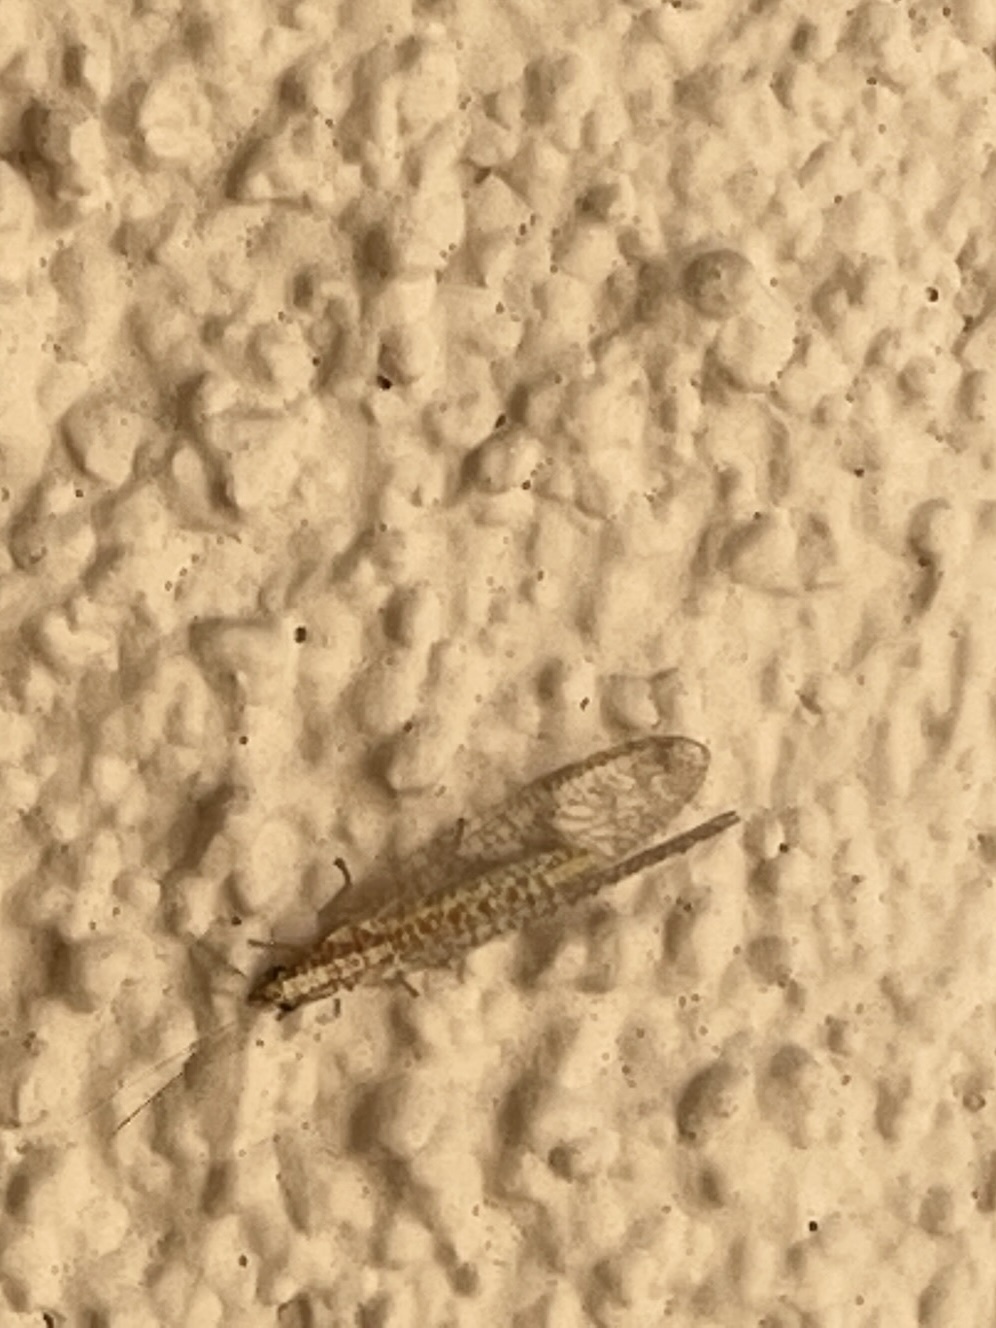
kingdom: Animalia
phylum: Arthropoda
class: Insecta
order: Neuroptera
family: Chrysopidae
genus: Eremochrysa
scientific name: Eremochrysa
